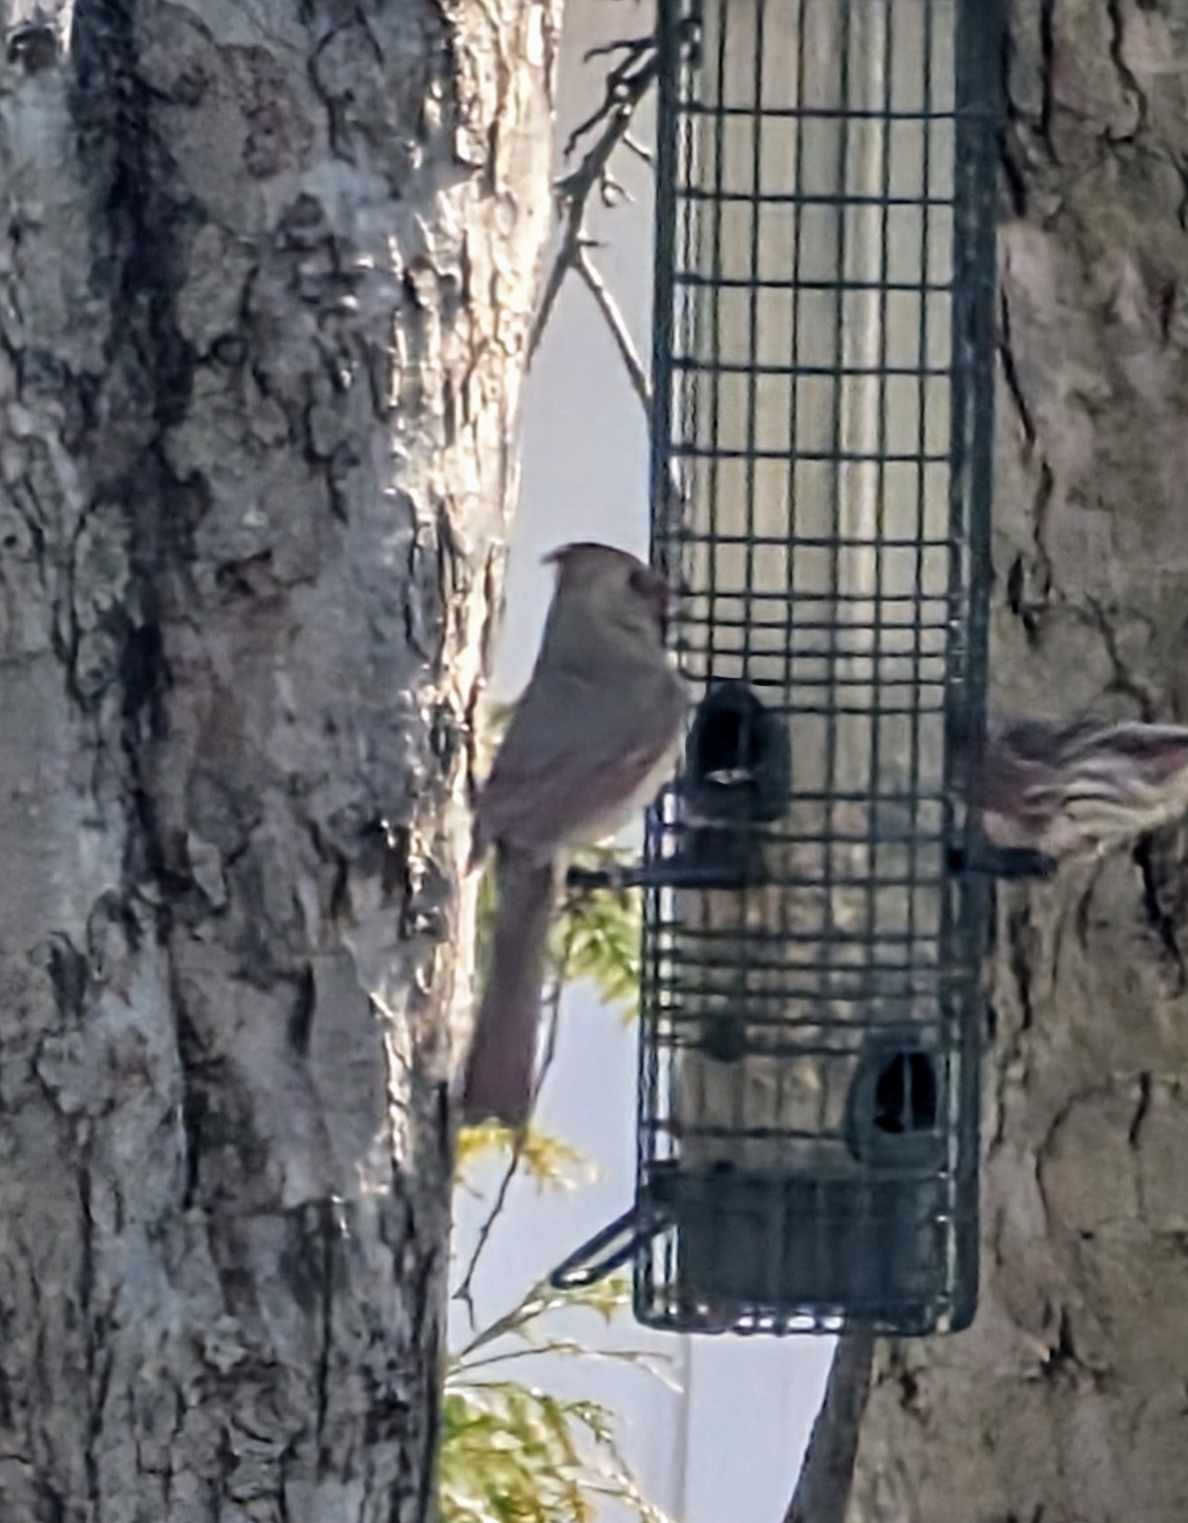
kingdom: Animalia
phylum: Chordata
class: Aves
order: Passeriformes
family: Cardinalidae
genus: Cardinalis
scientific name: Cardinalis cardinalis
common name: Northern cardinal
